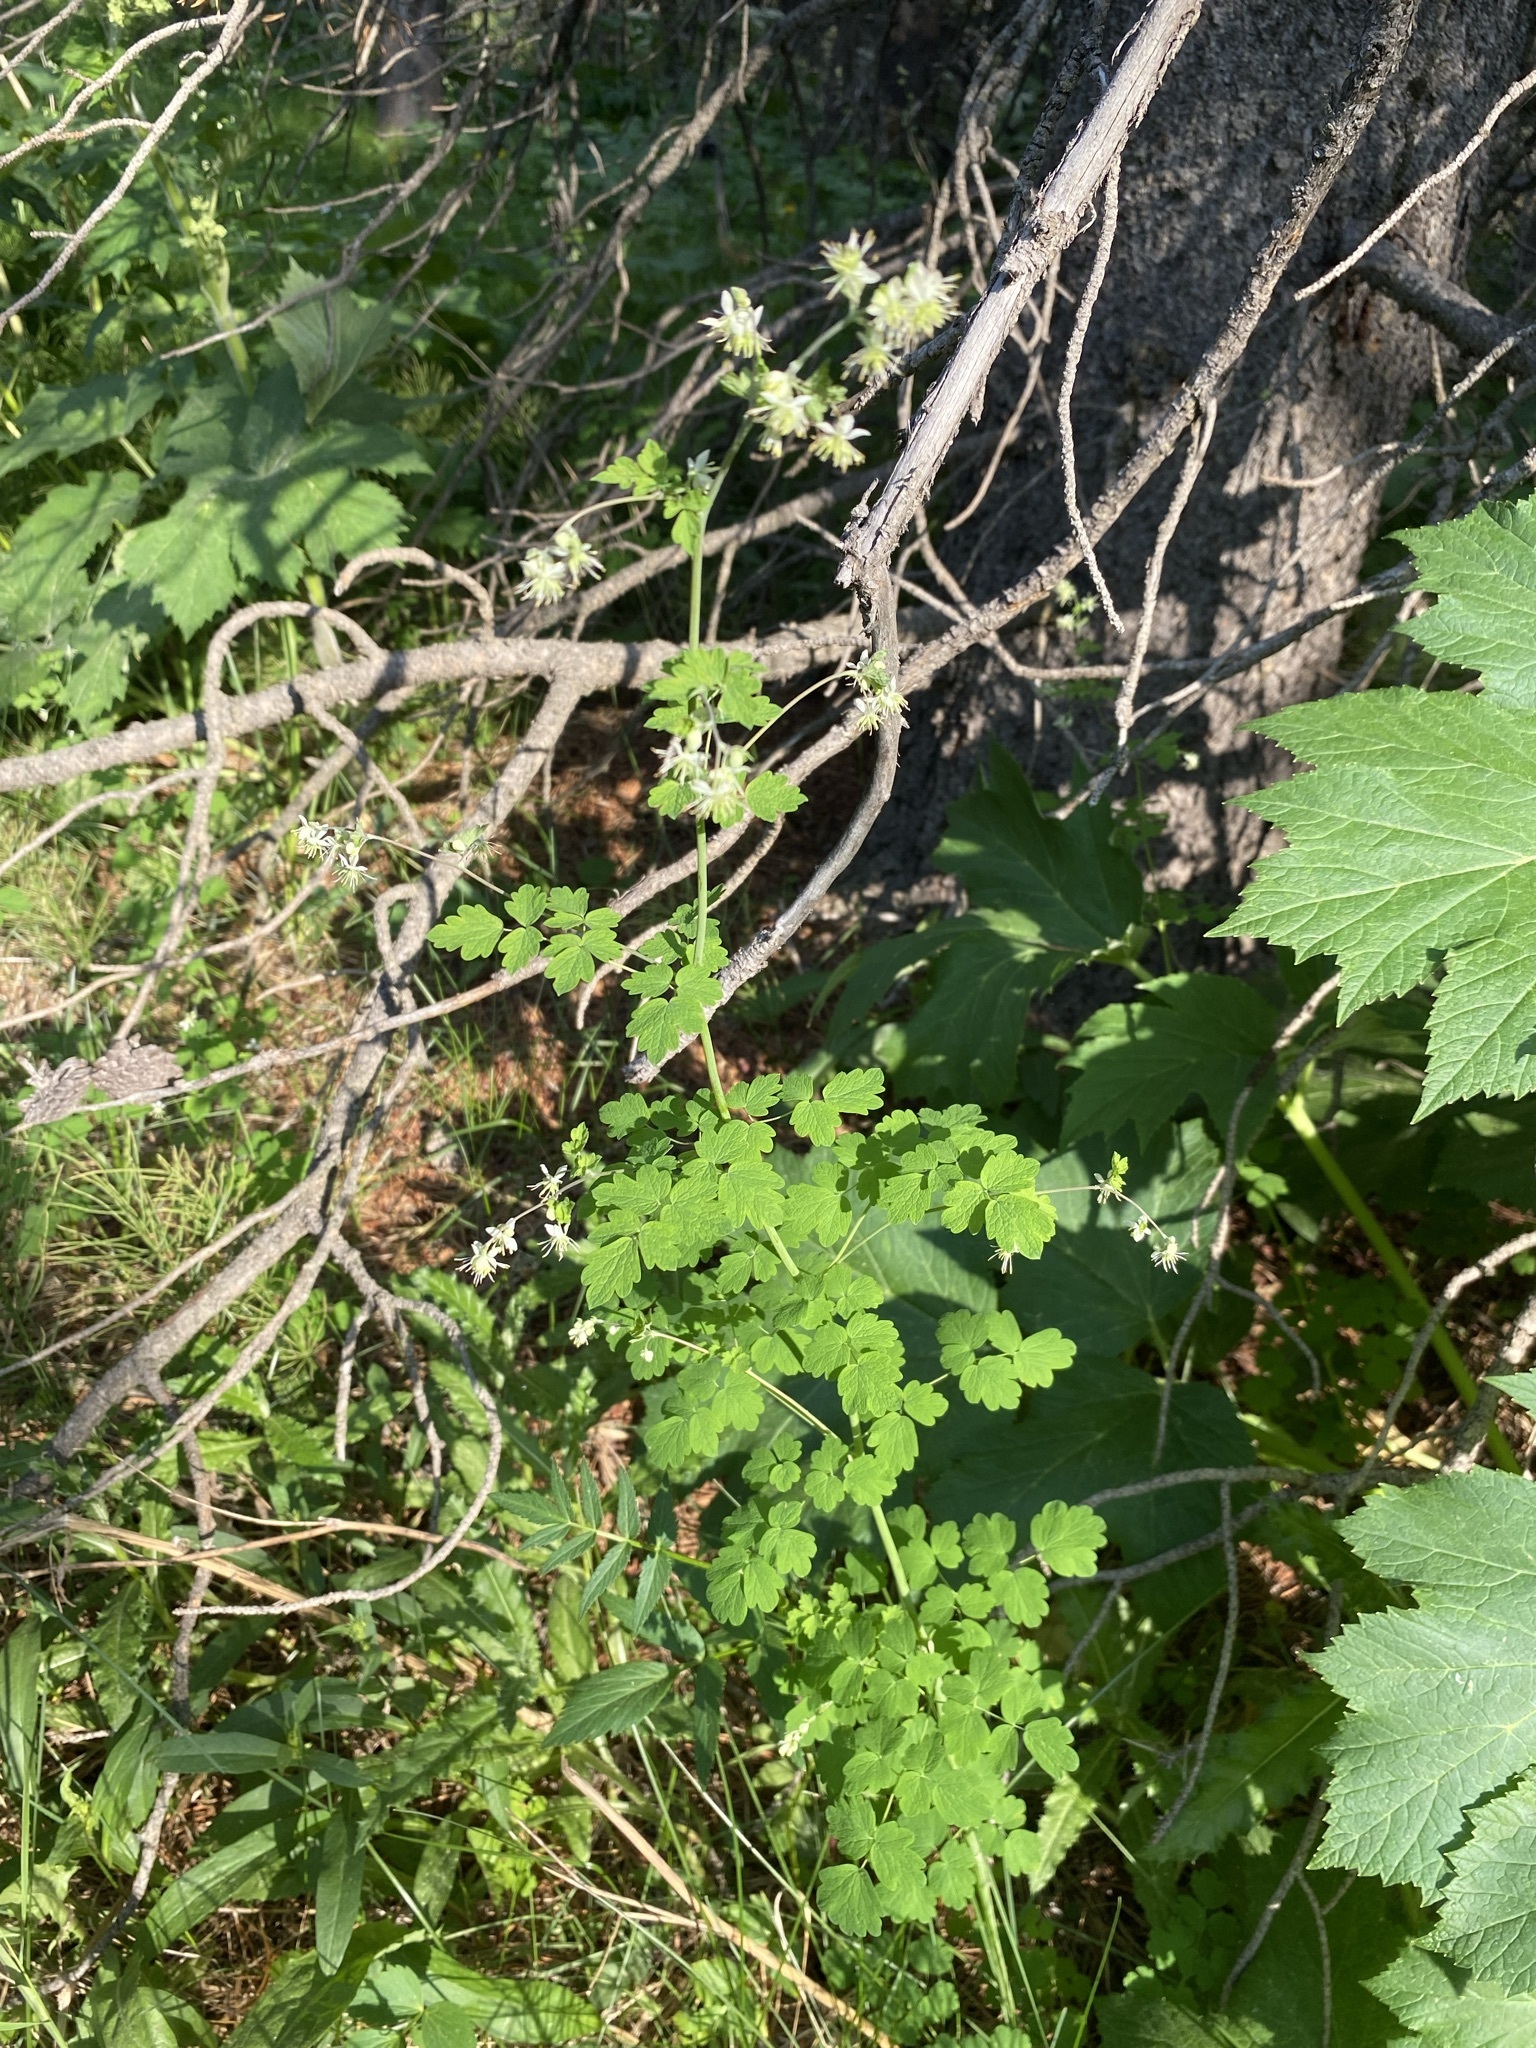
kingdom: Plantae
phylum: Tracheophyta
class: Magnoliopsida
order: Ranunculales
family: Ranunculaceae
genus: Thalictrum
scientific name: Thalictrum sparsiflorum
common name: Mountain meadow-rue
